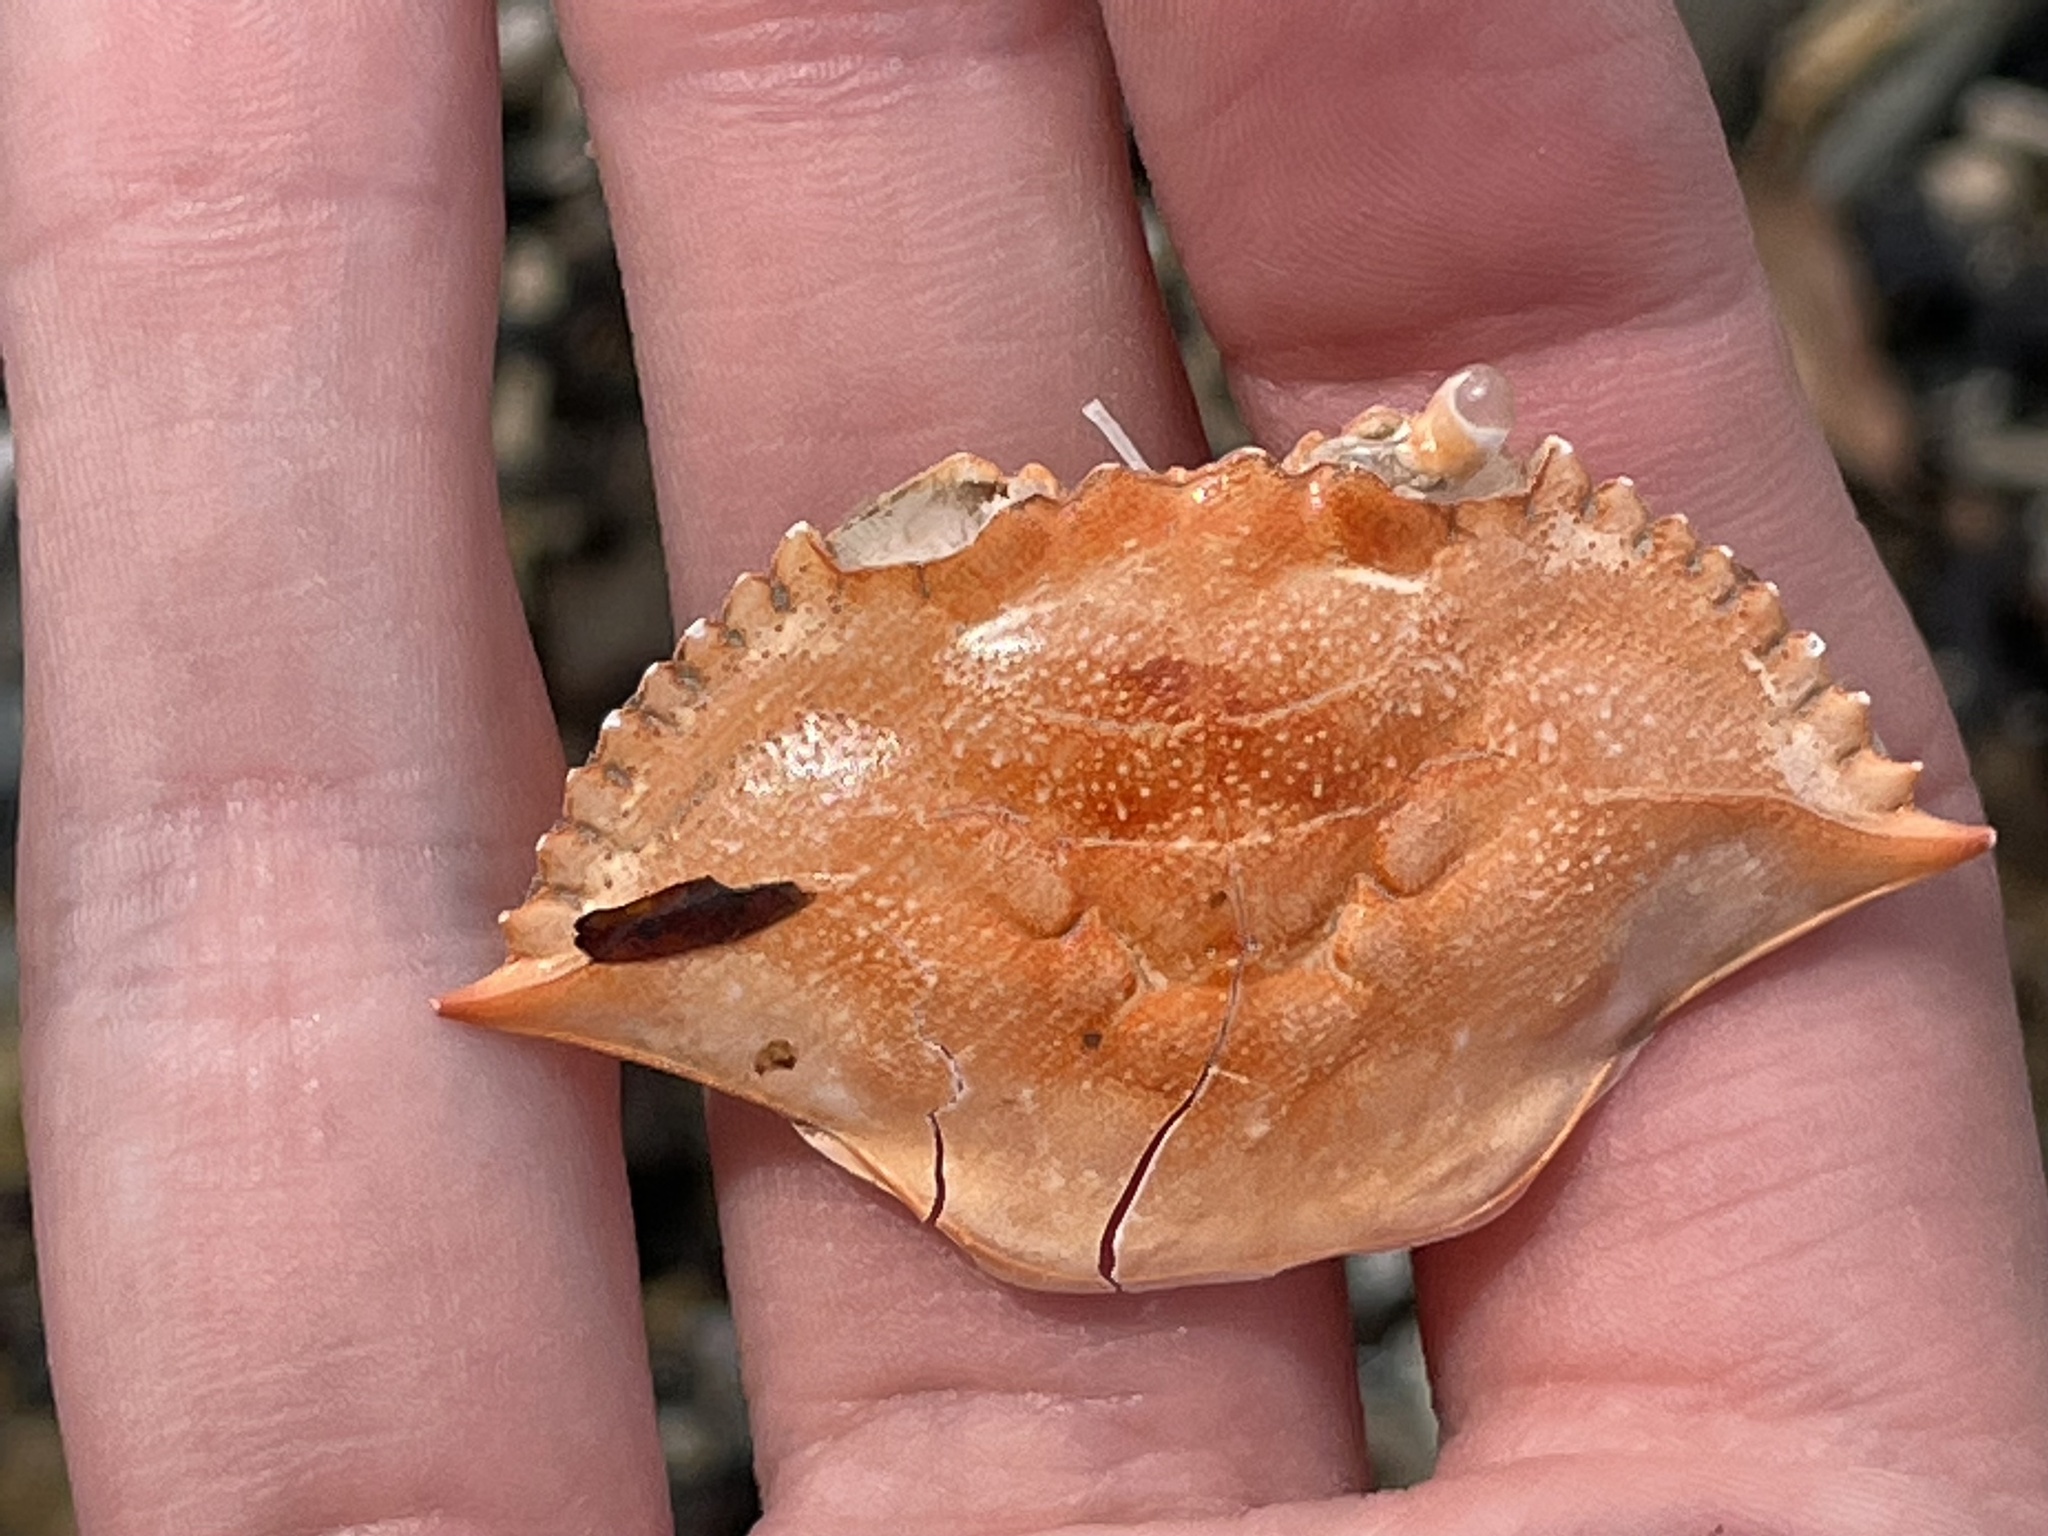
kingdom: Animalia
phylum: Arthropoda
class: Malacostraca
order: Decapoda
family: Portunidae
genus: Callinectes
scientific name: Callinectes sapidus
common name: Blue crab
